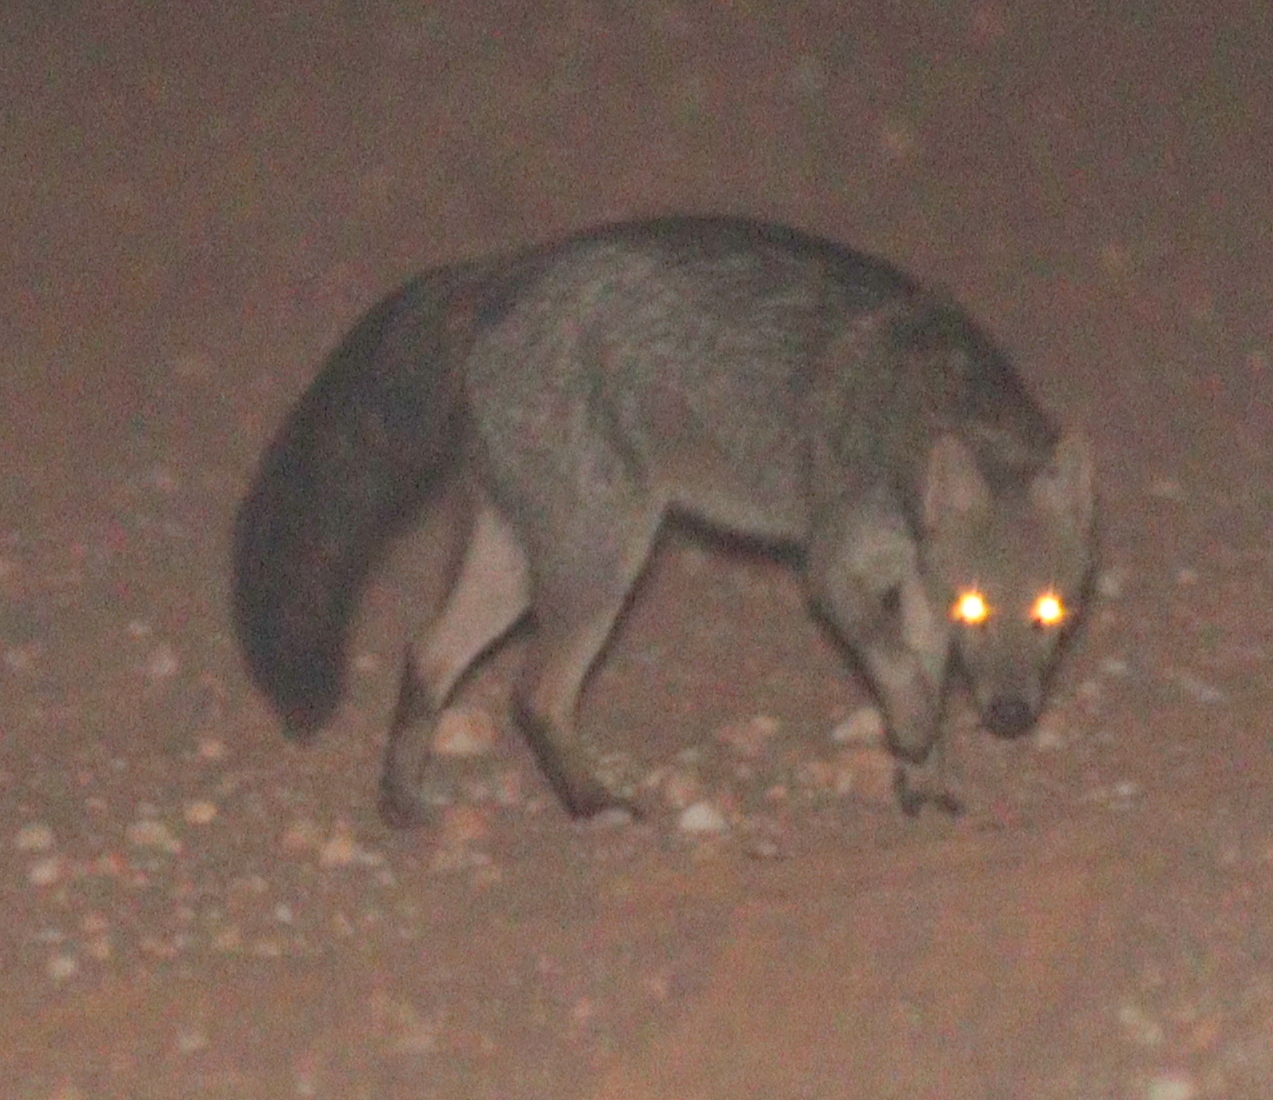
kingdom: Animalia
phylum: Chordata
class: Mammalia
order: Carnivora
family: Canidae
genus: Cerdocyon
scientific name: Cerdocyon thous
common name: Crab-eating fox
